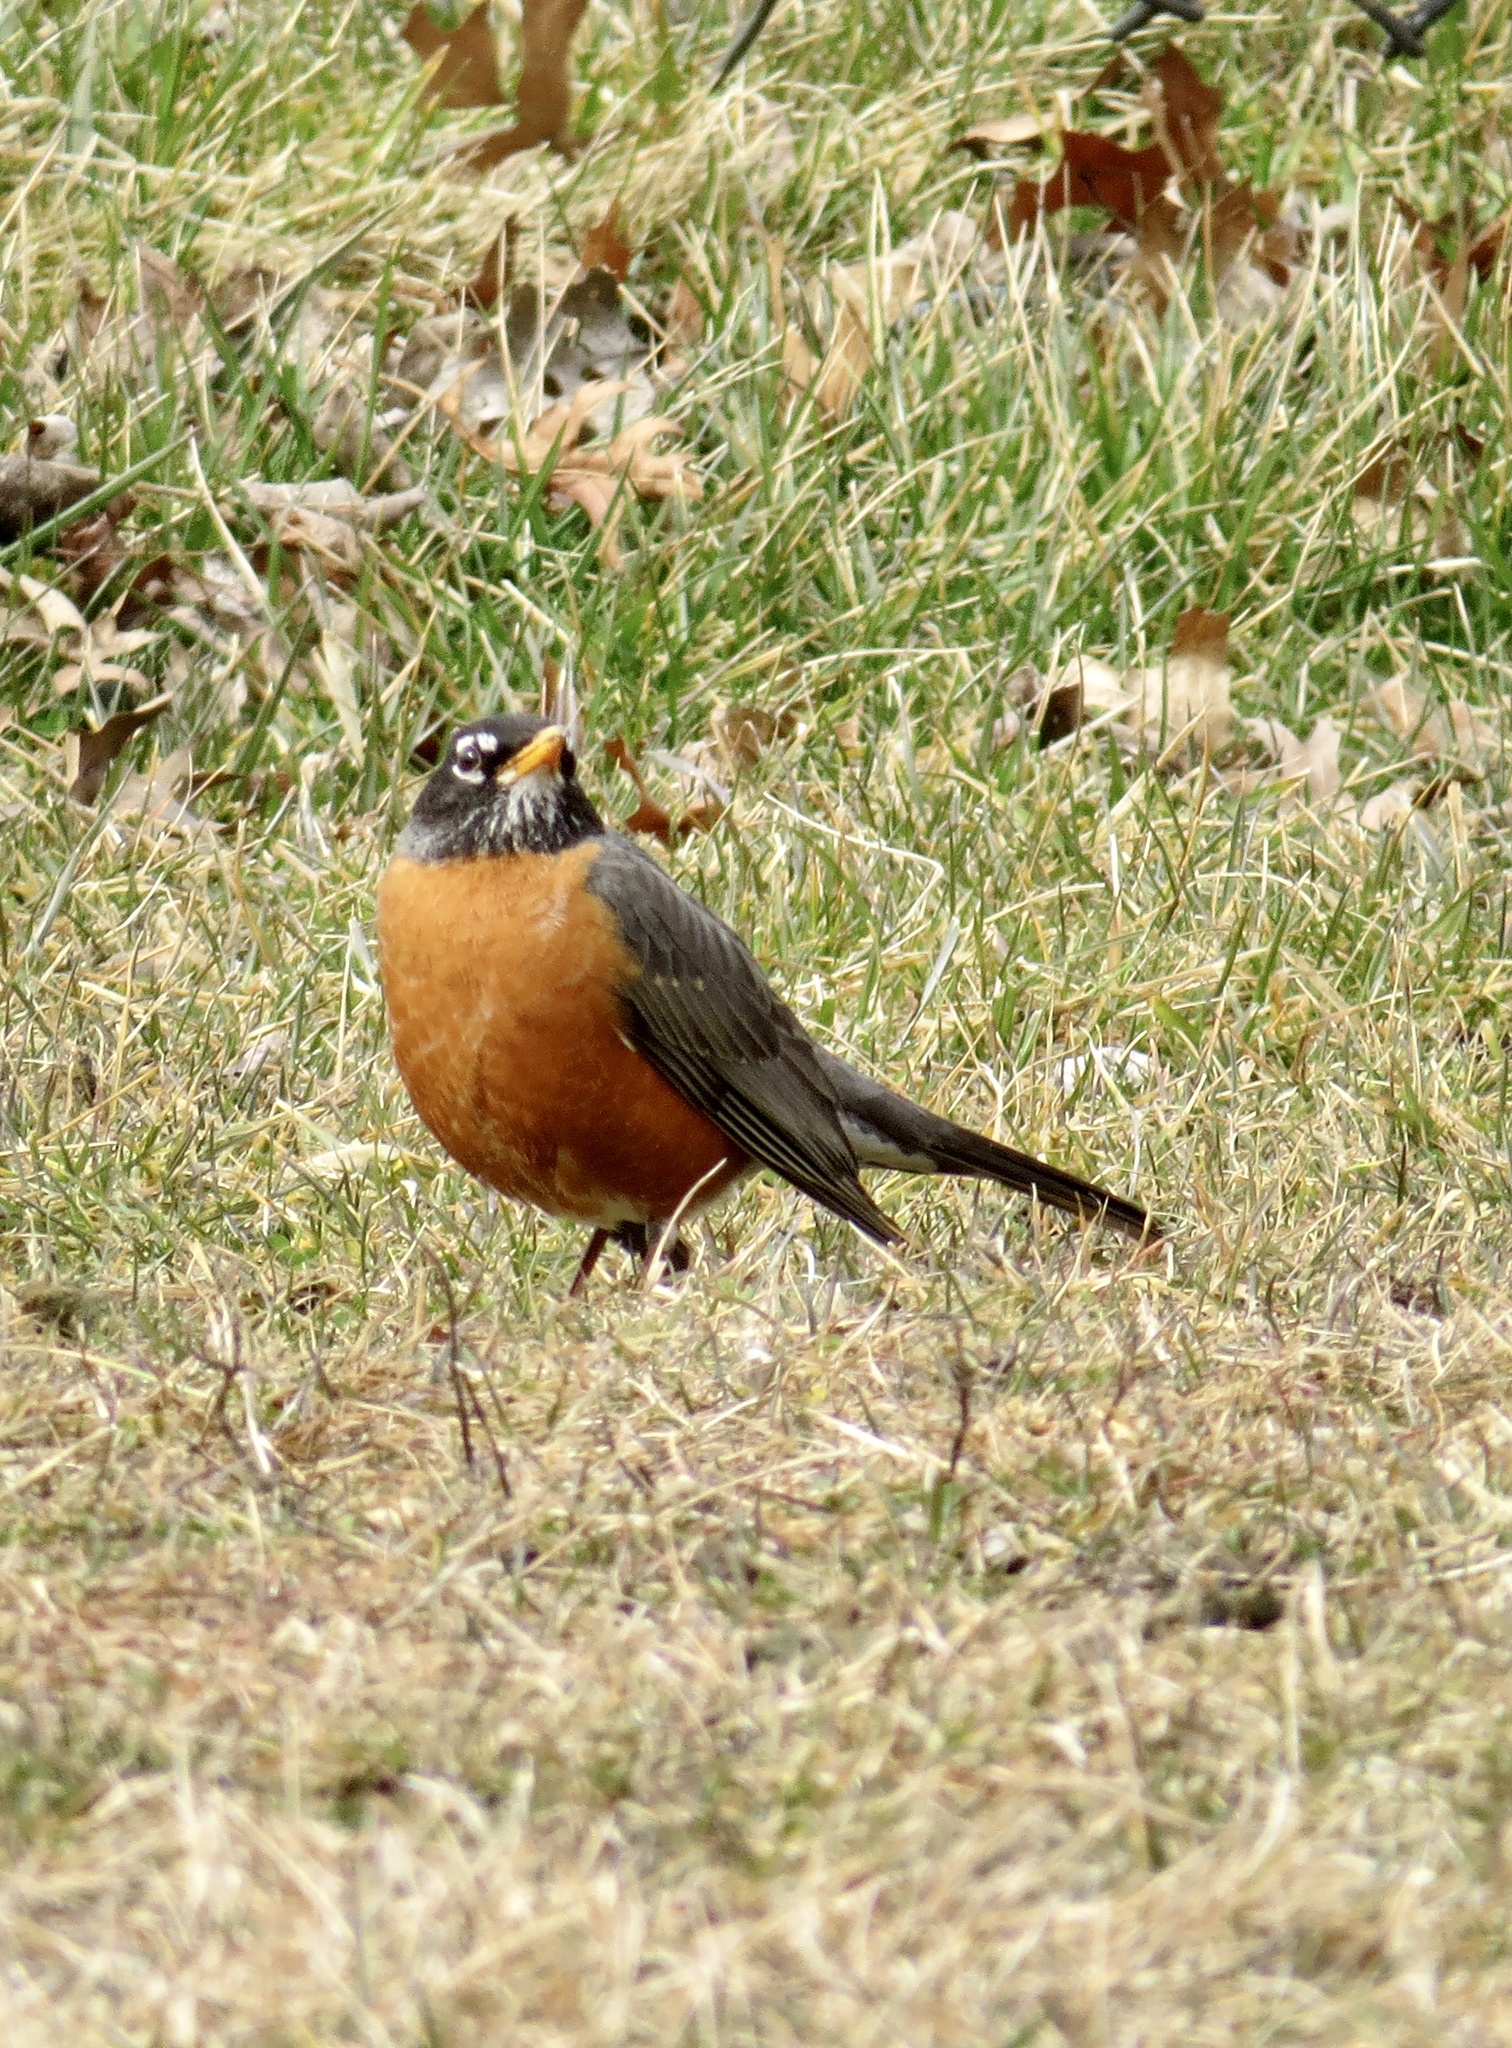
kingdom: Animalia
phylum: Chordata
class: Aves
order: Passeriformes
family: Turdidae
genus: Turdus
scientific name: Turdus migratorius
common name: American robin
